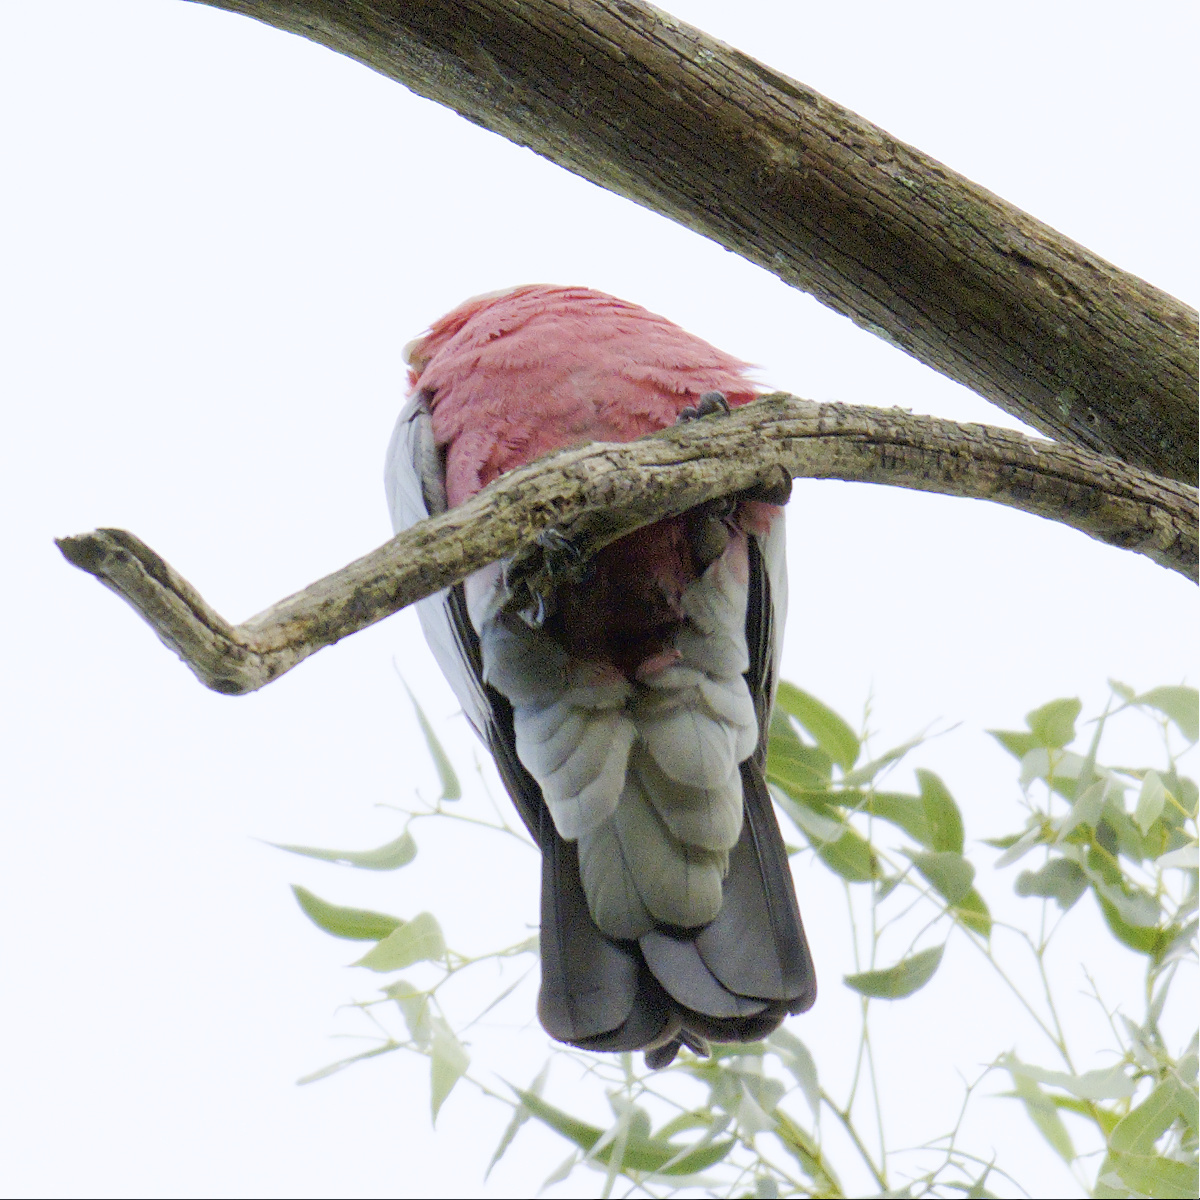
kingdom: Animalia
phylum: Chordata
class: Aves
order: Psittaciformes
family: Psittacidae
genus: Eolophus
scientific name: Eolophus roseicapilla
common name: Galah
